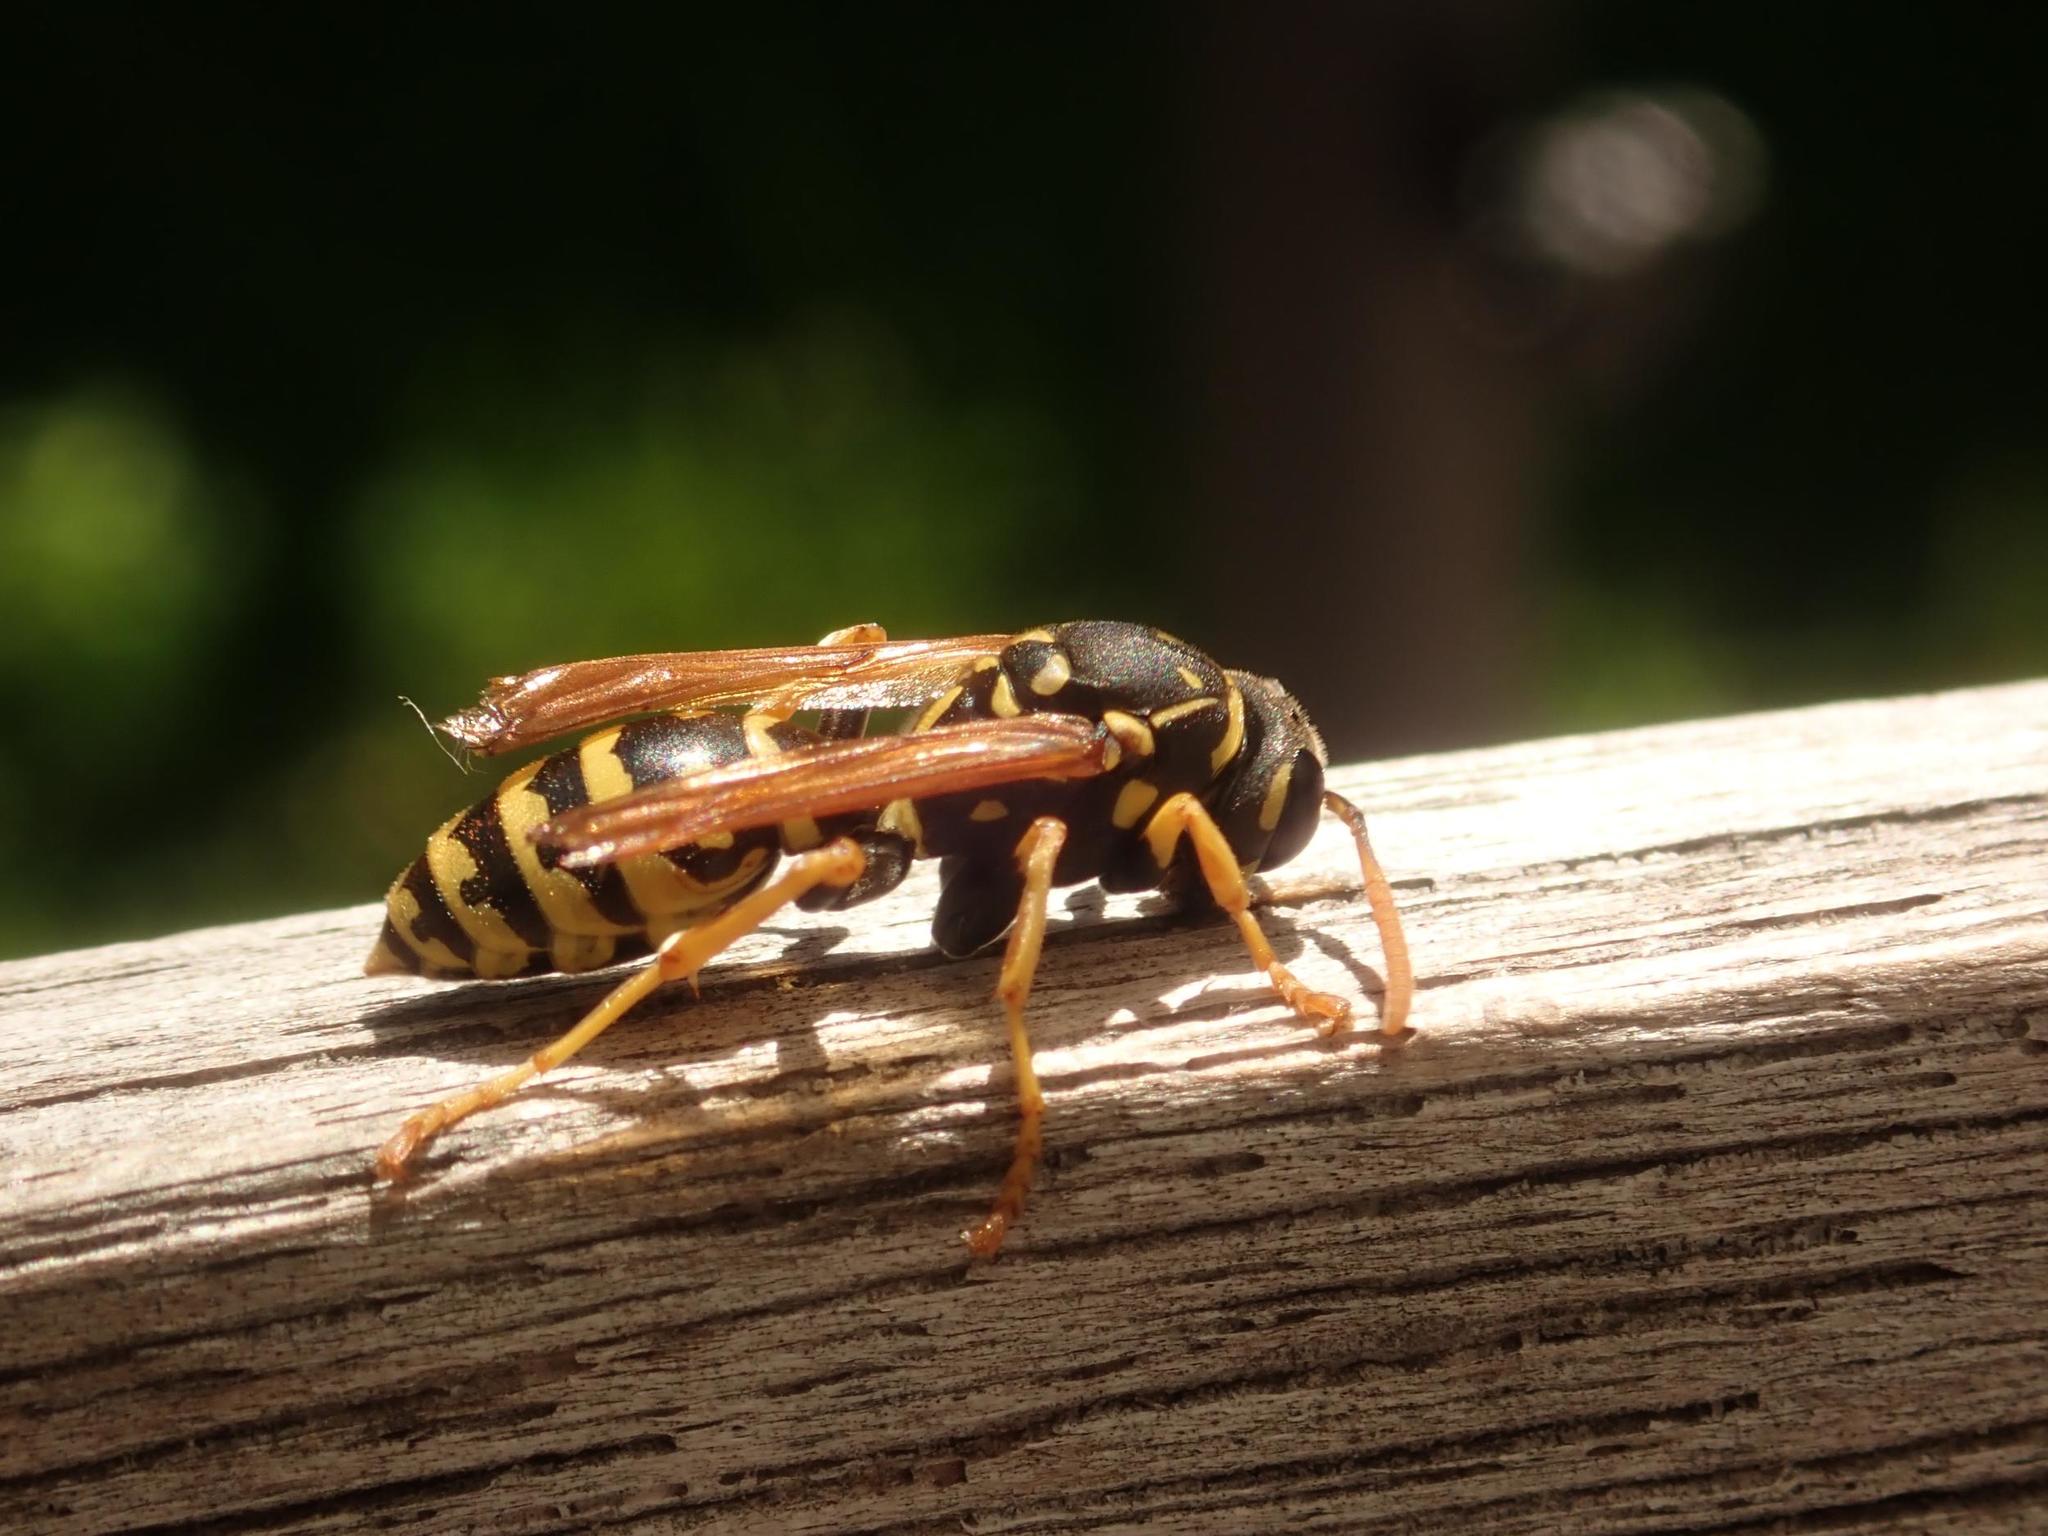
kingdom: Animalia
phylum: Arthropoda
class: Insecta
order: Hymenoptera
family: Eumenidae
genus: Polistes
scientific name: Polistes dominula
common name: Paper wasp
